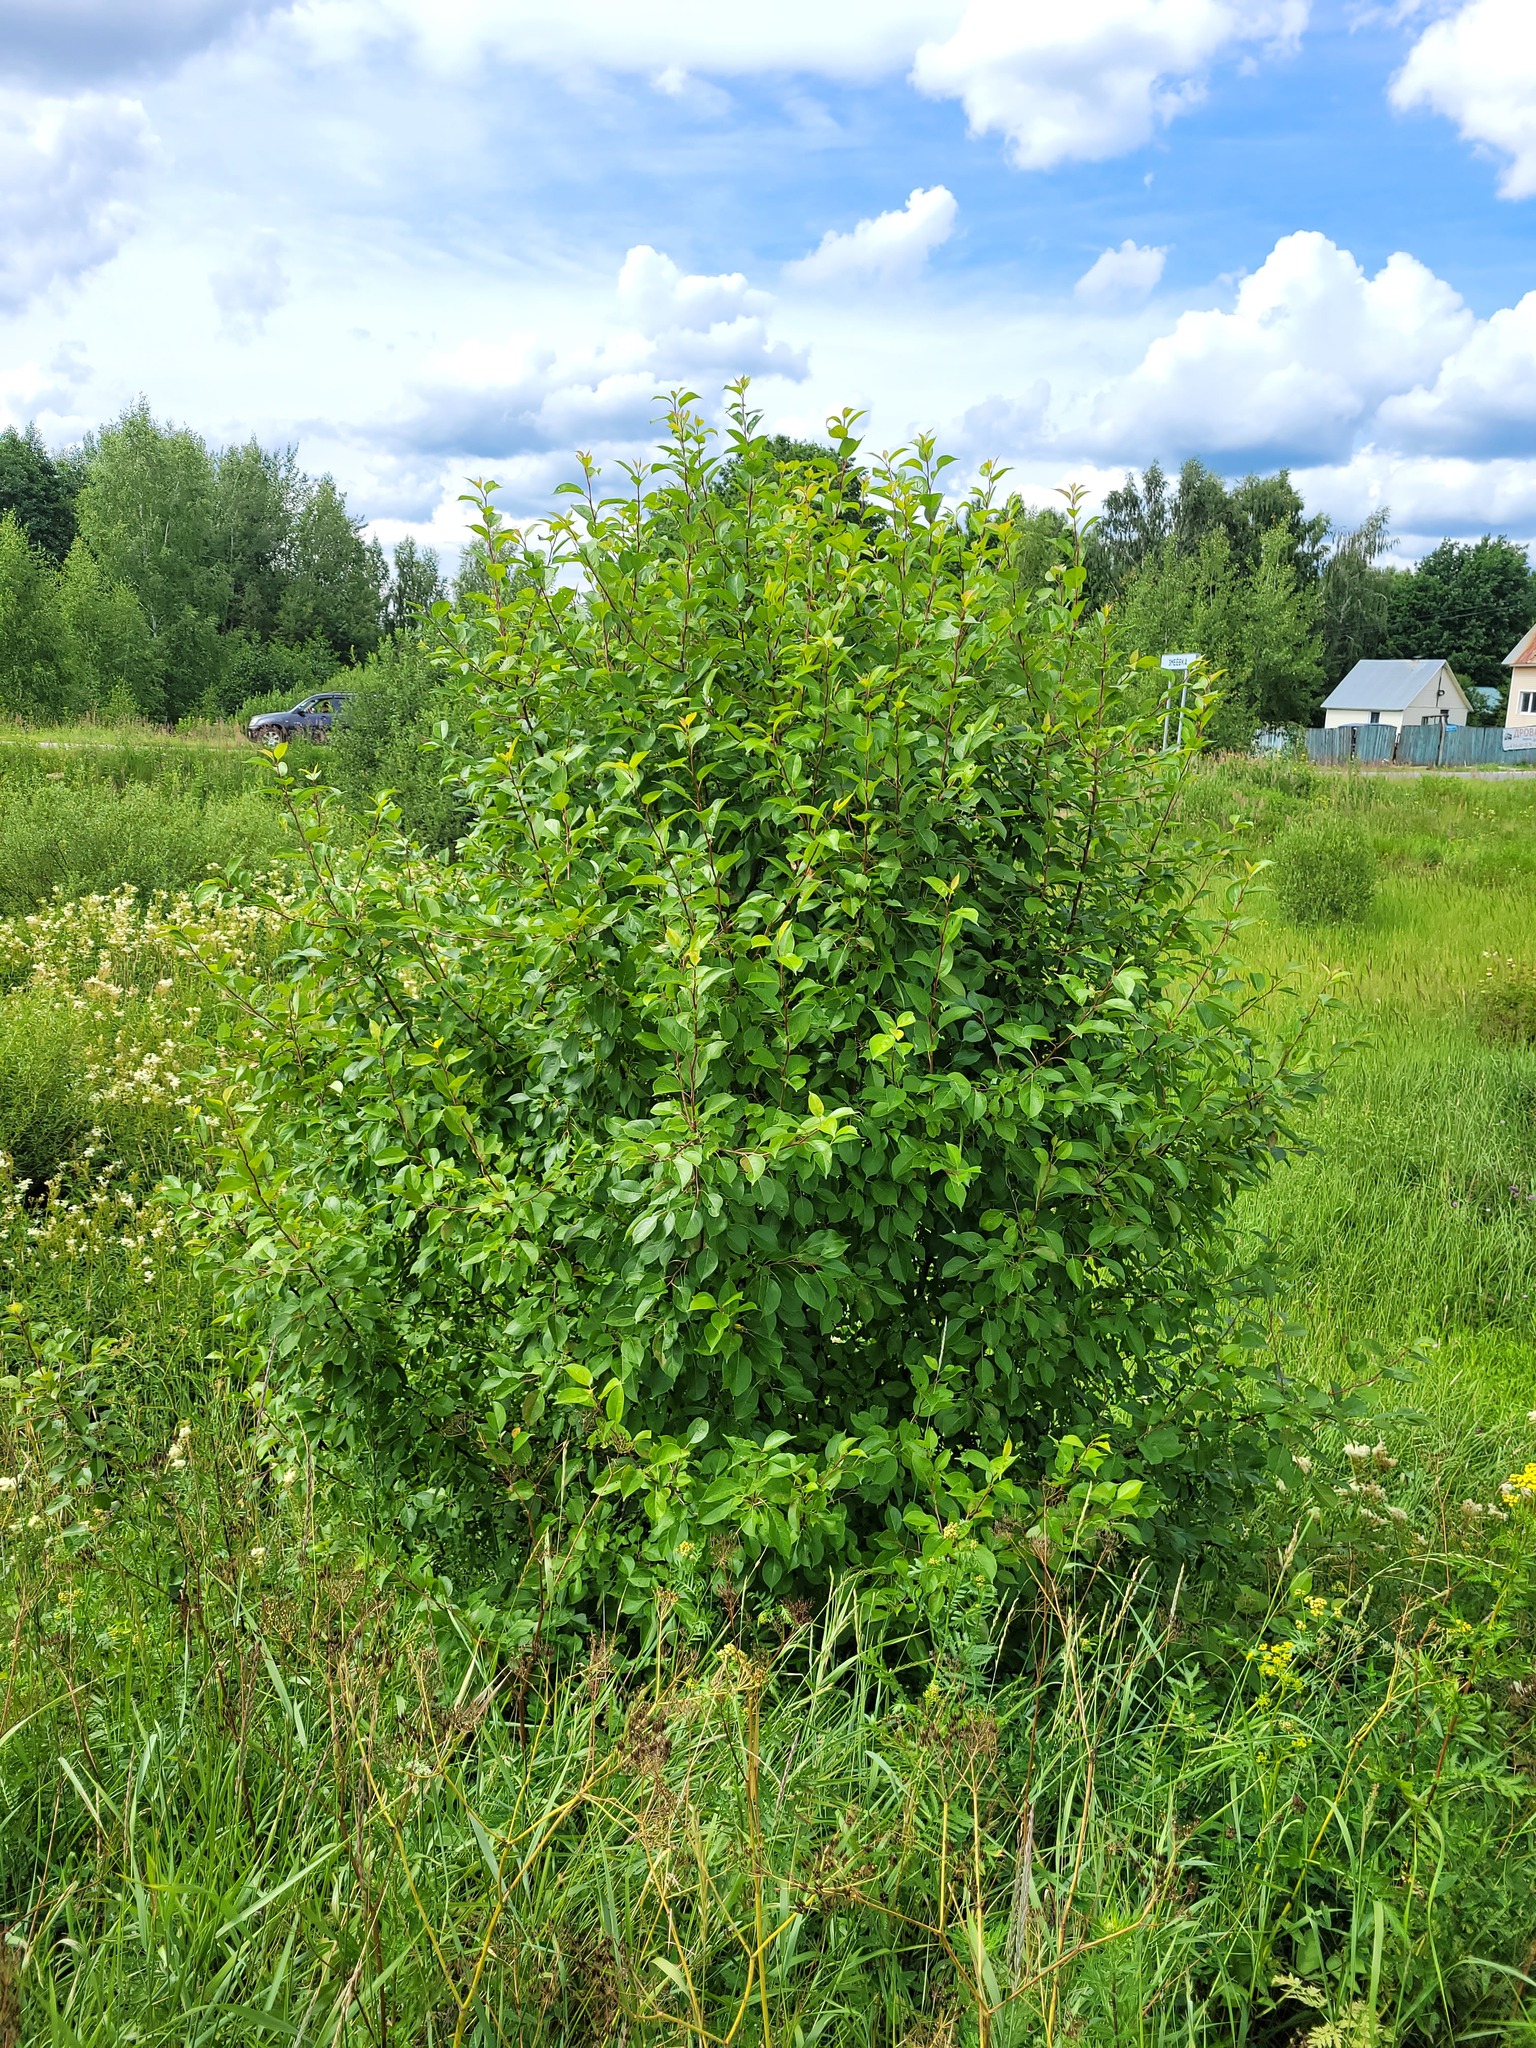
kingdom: Plantae
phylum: Tracheophyta
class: Magnoliopsida
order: Rosales
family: Rosaceae
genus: Malus
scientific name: Malus baccata
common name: Siberian crab
